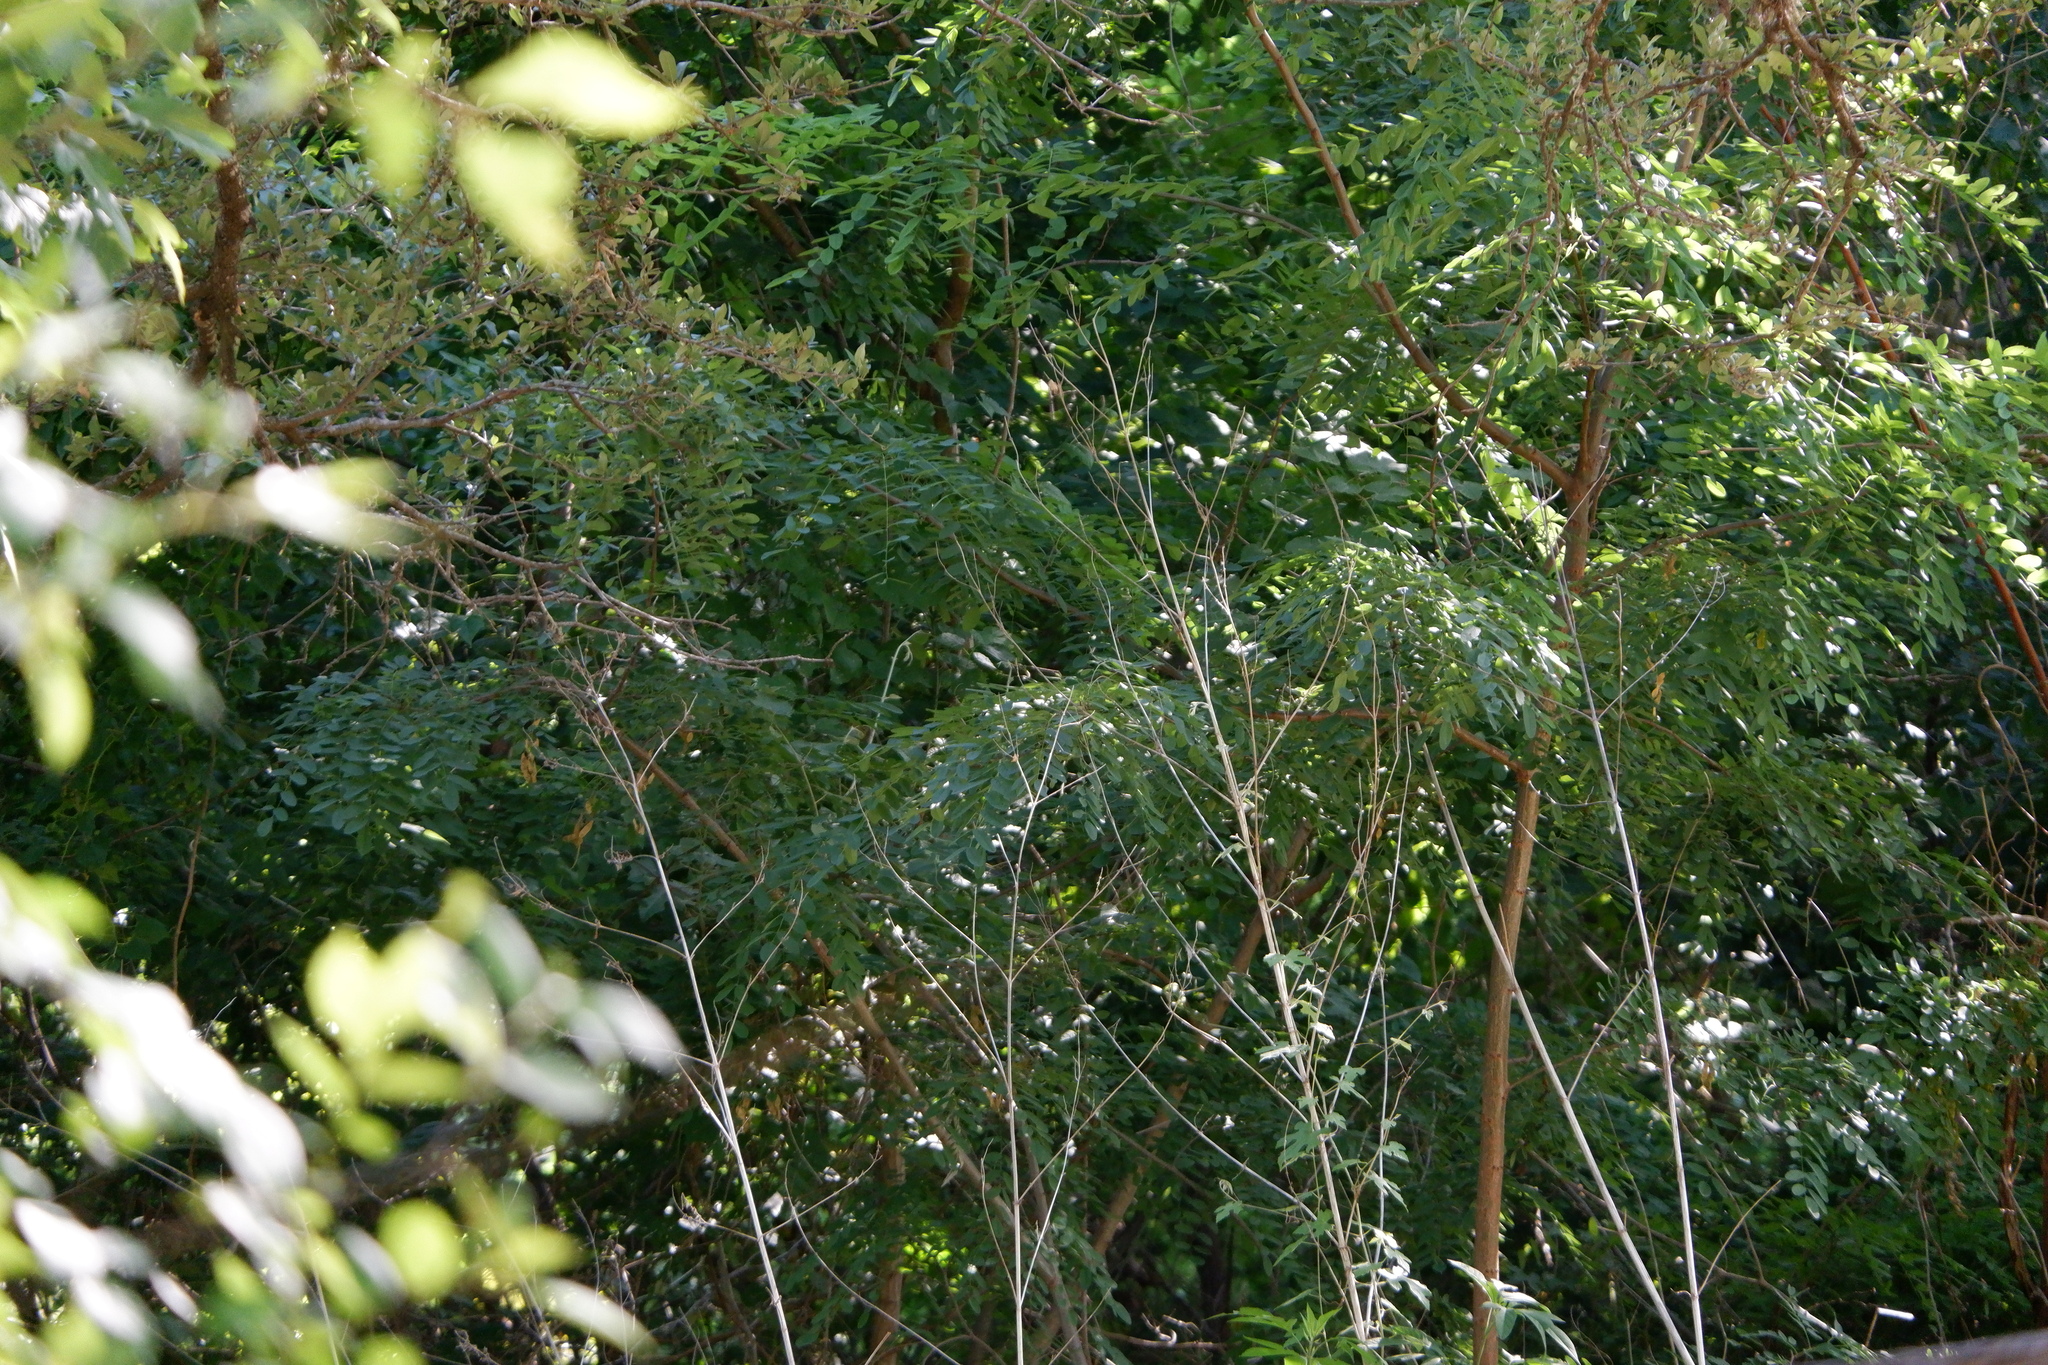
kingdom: Plantae
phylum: Tracheophyta
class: Magnoliopsida
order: Fabales
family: Fabaceae
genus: Robinia
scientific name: Robinia pseudoacacia
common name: Black locust
